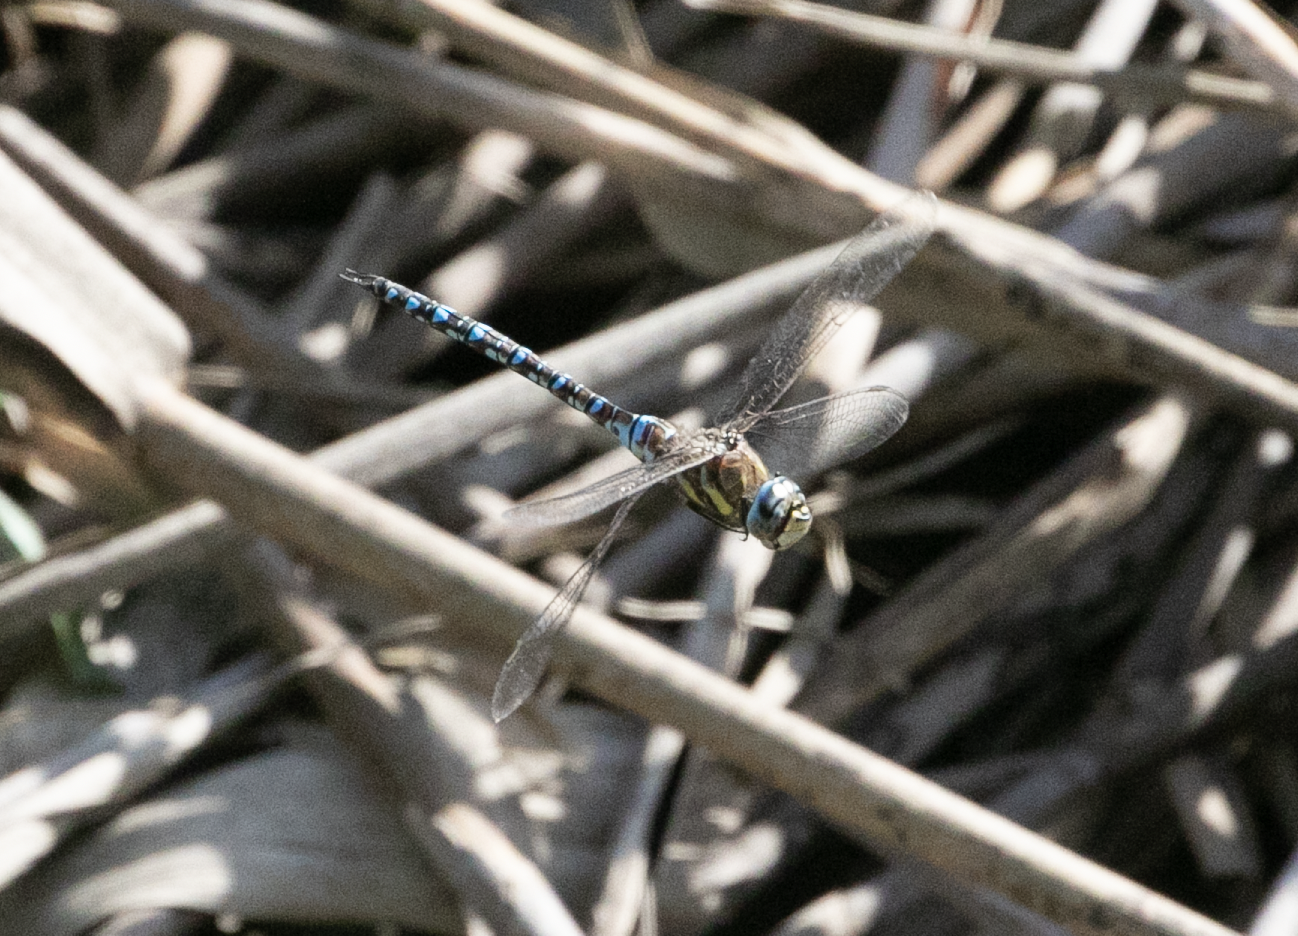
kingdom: Animalia
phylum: Arthropoda
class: Insecta
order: Odonata
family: Aeshnidae
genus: Aeshna
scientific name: Aeshna mixta
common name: Migrant hawker
